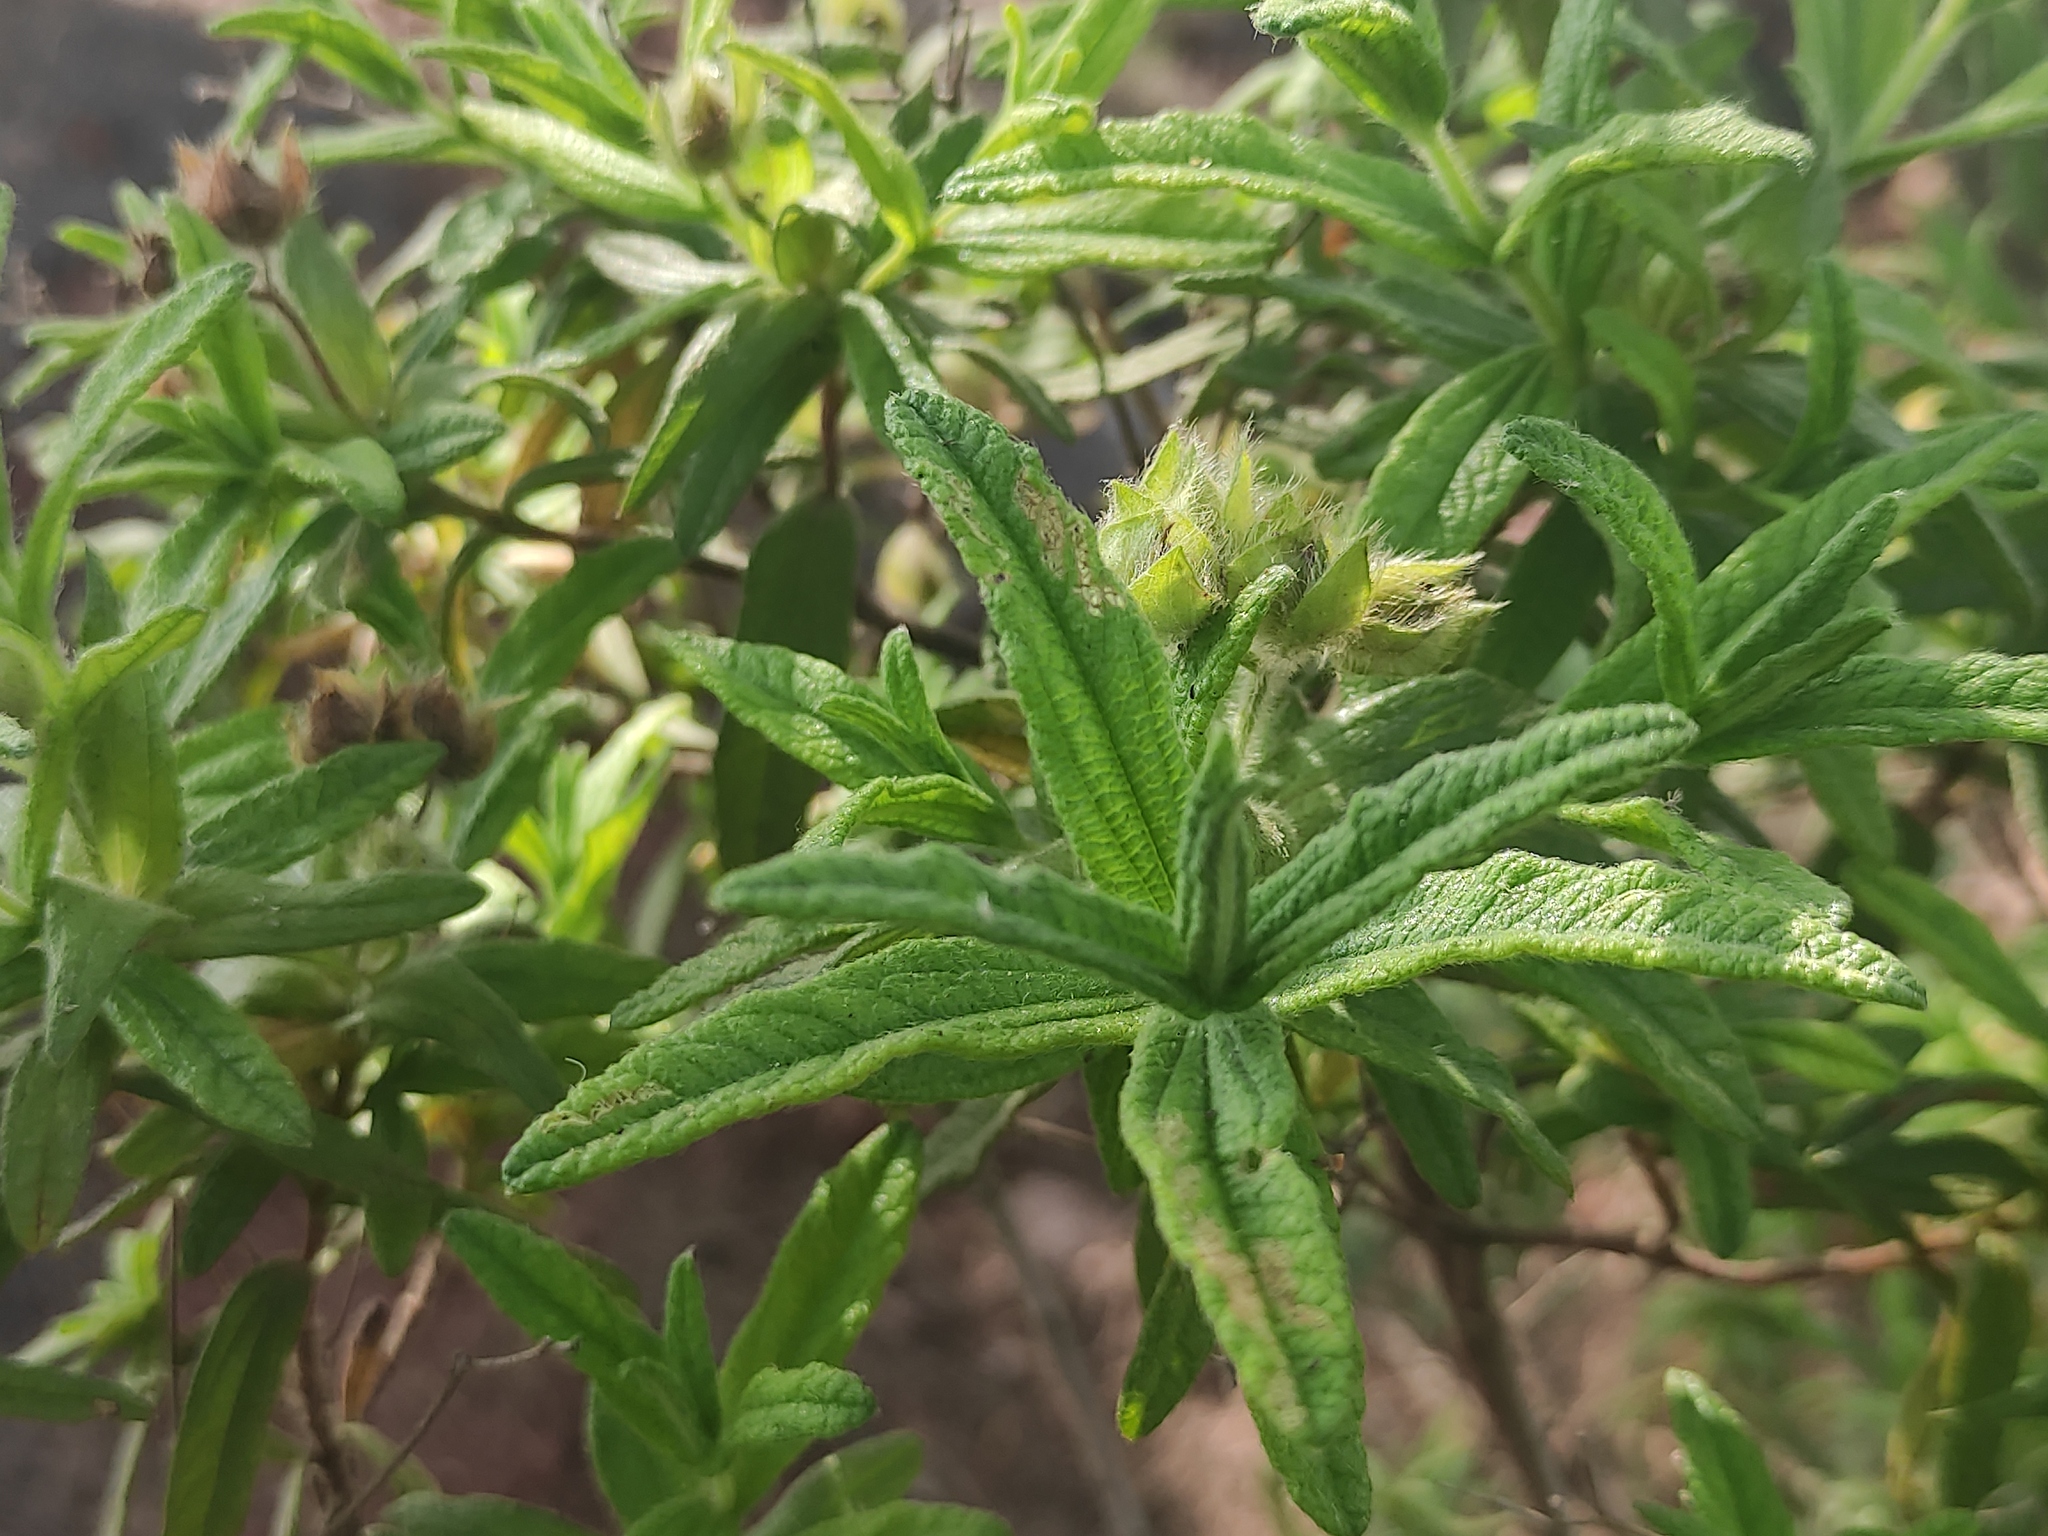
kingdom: Plantae
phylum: Tracheophyta
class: Magnoliopsida
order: Malvales
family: Cistaceae
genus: Cistus
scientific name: Cistus monspeliensis
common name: Montpelier cistus
